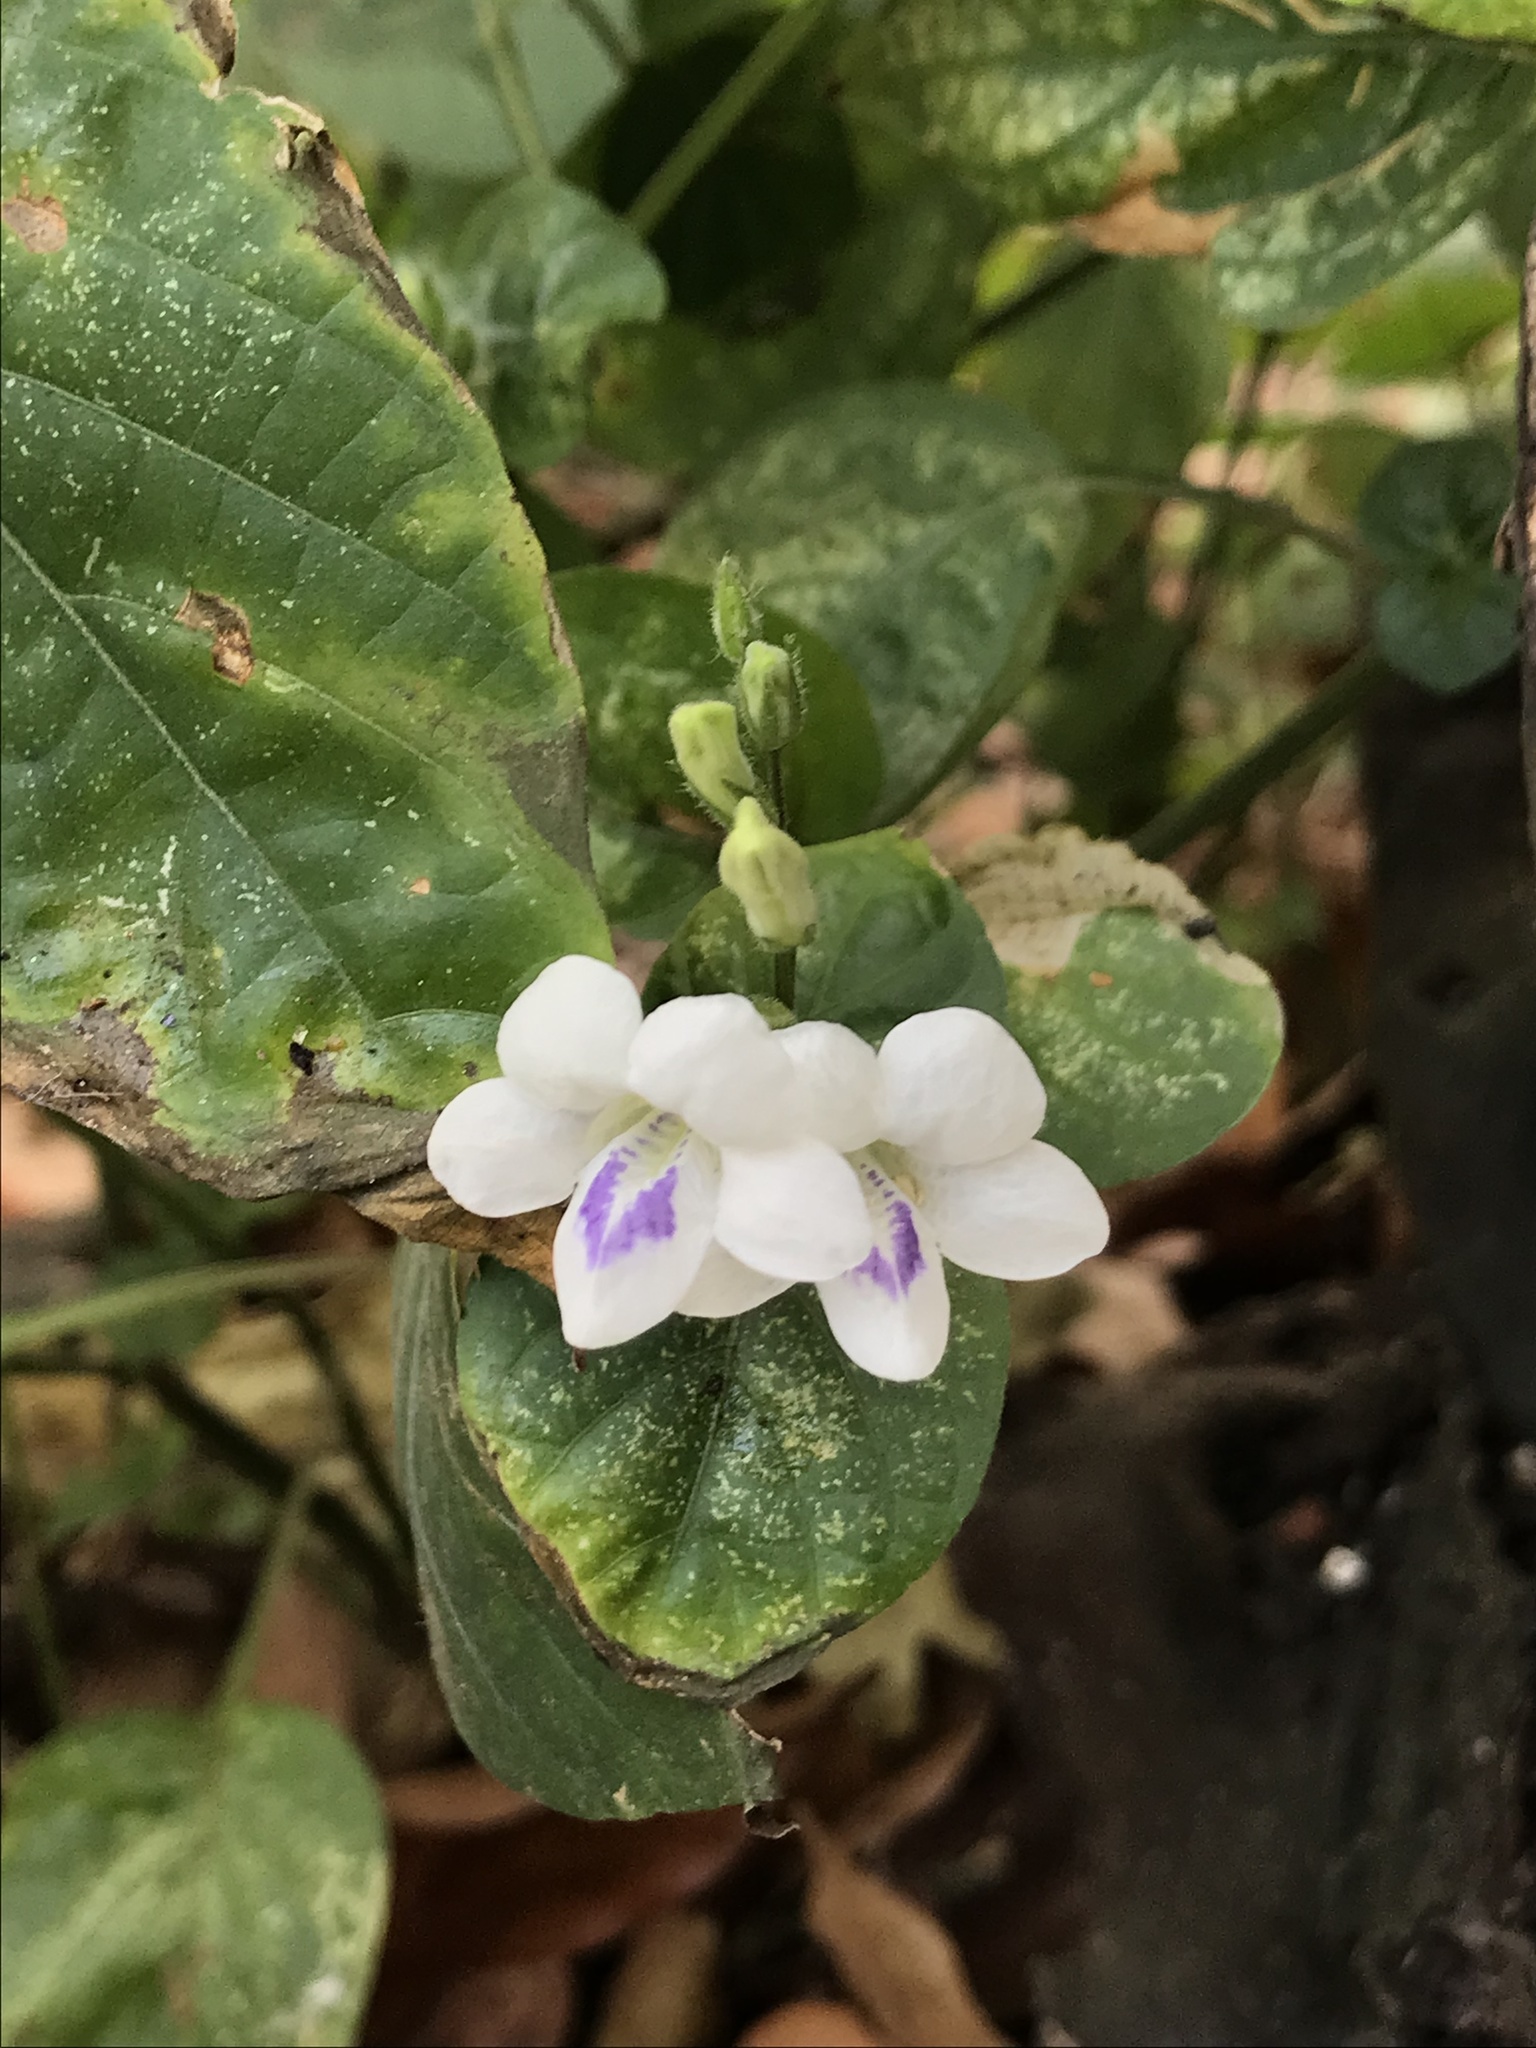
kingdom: Plantae
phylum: Tracheophyta
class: Magnoliopsida
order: Lamiales
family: Acanthaceae
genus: Asystasia
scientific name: Asystasia intrusa
